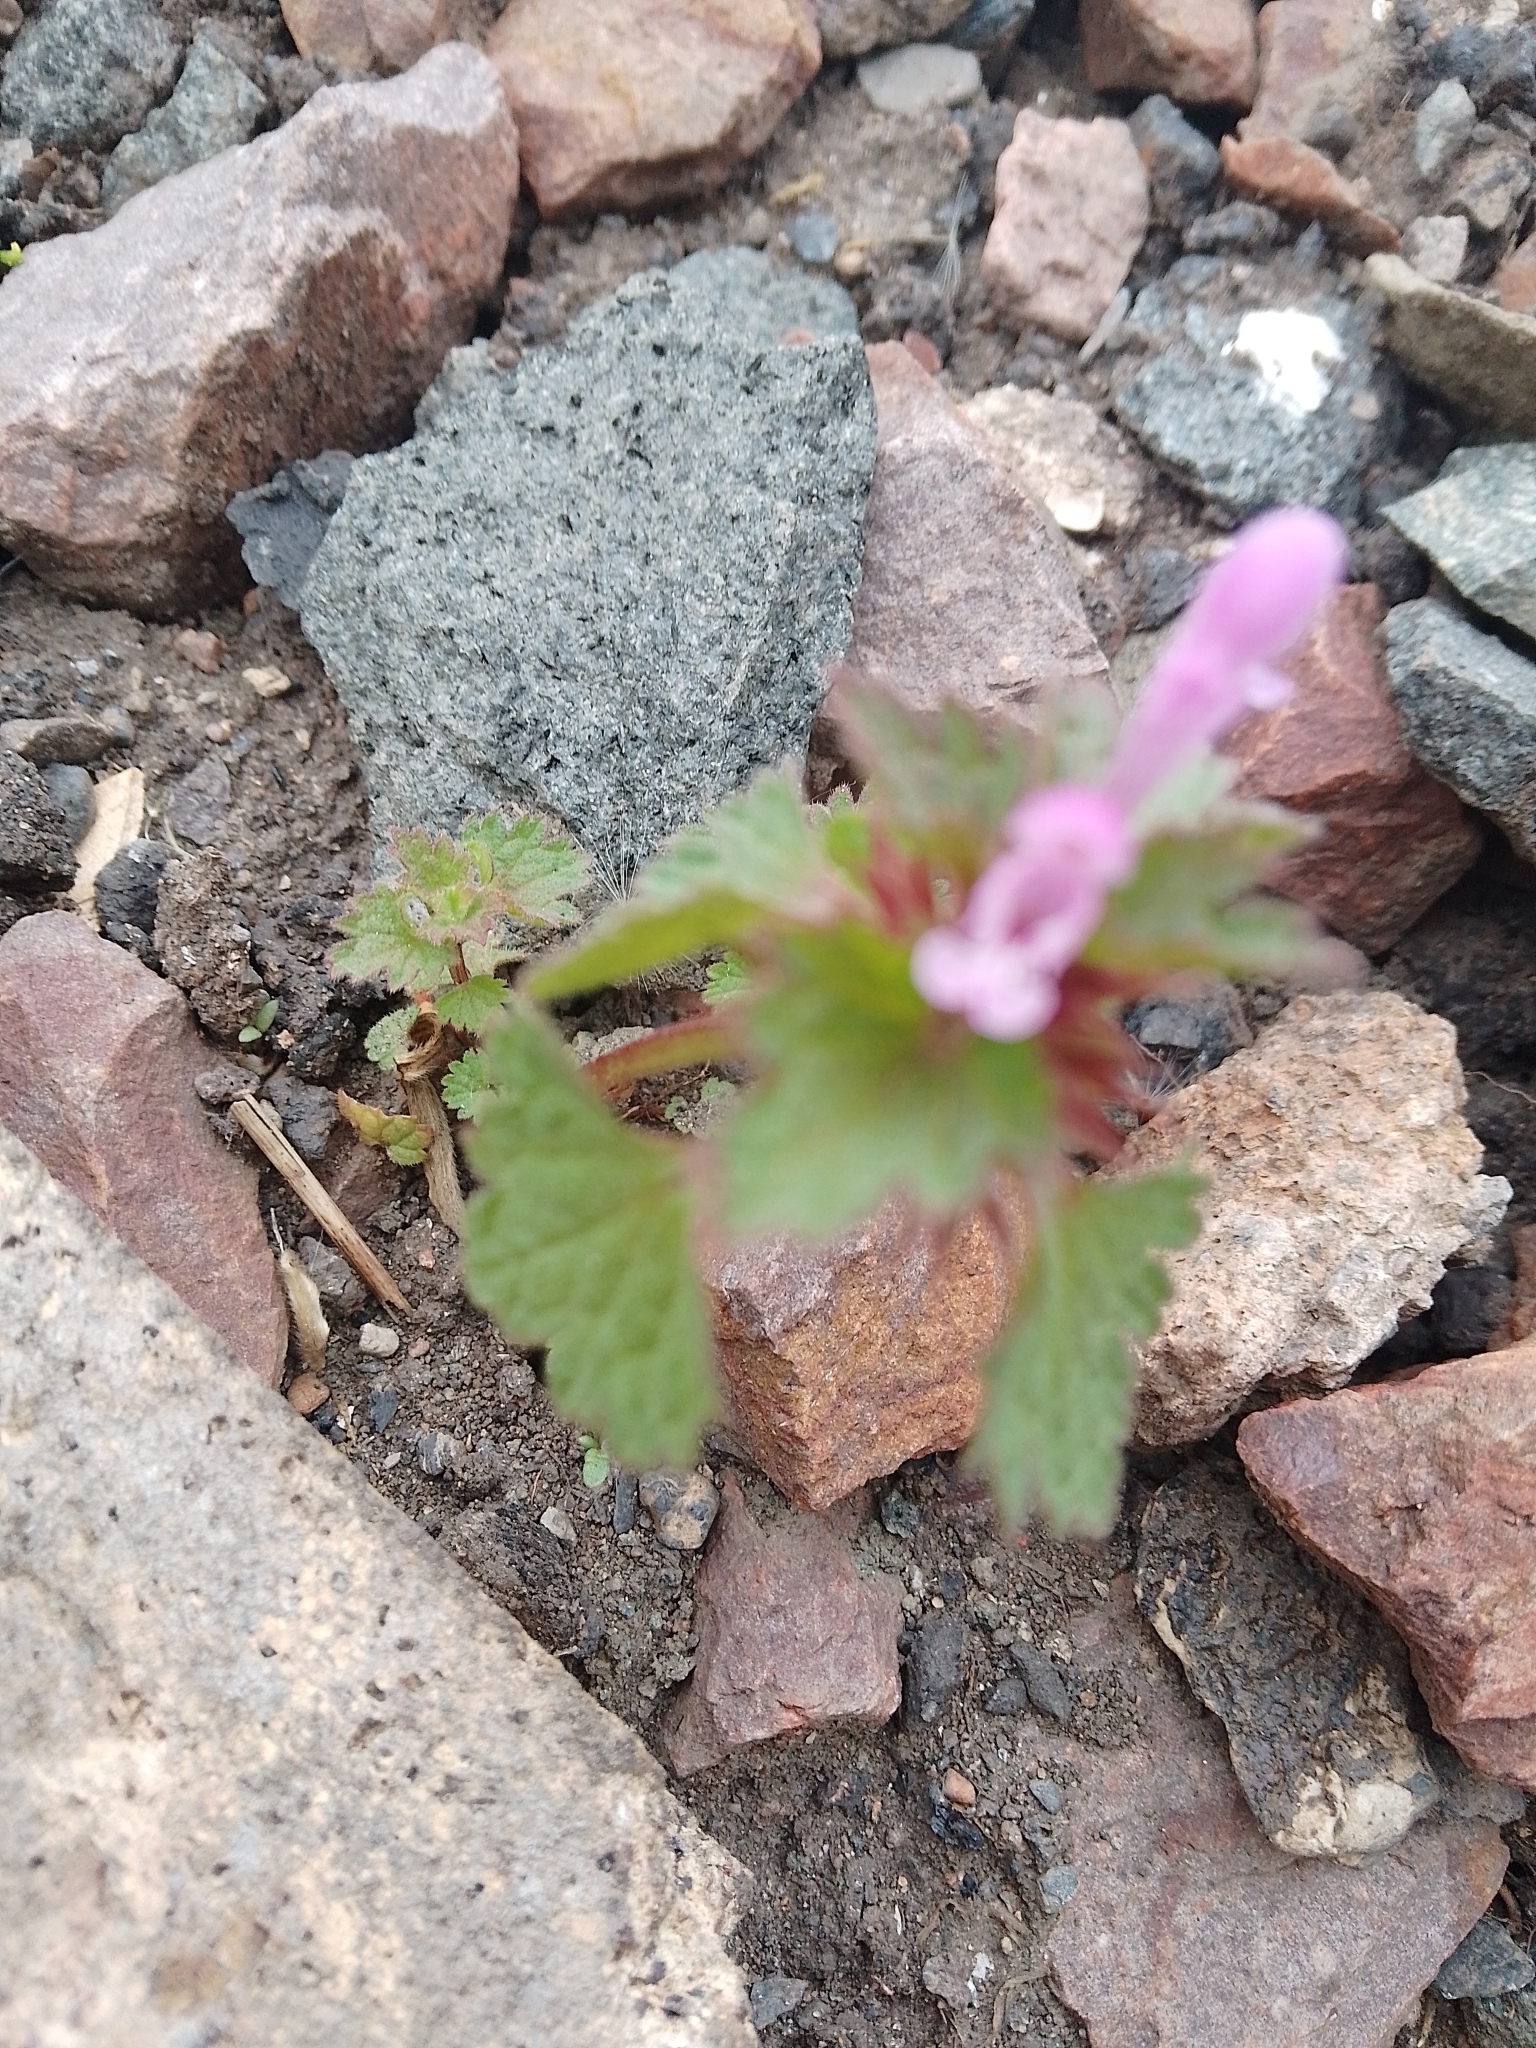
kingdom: Plantae
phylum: Tracheophyta
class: Magnoliopsida
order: Lamiales
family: Lamiaceae
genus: Lamium
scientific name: Lamium hybridum
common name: Cut-leaved dead-nettle
